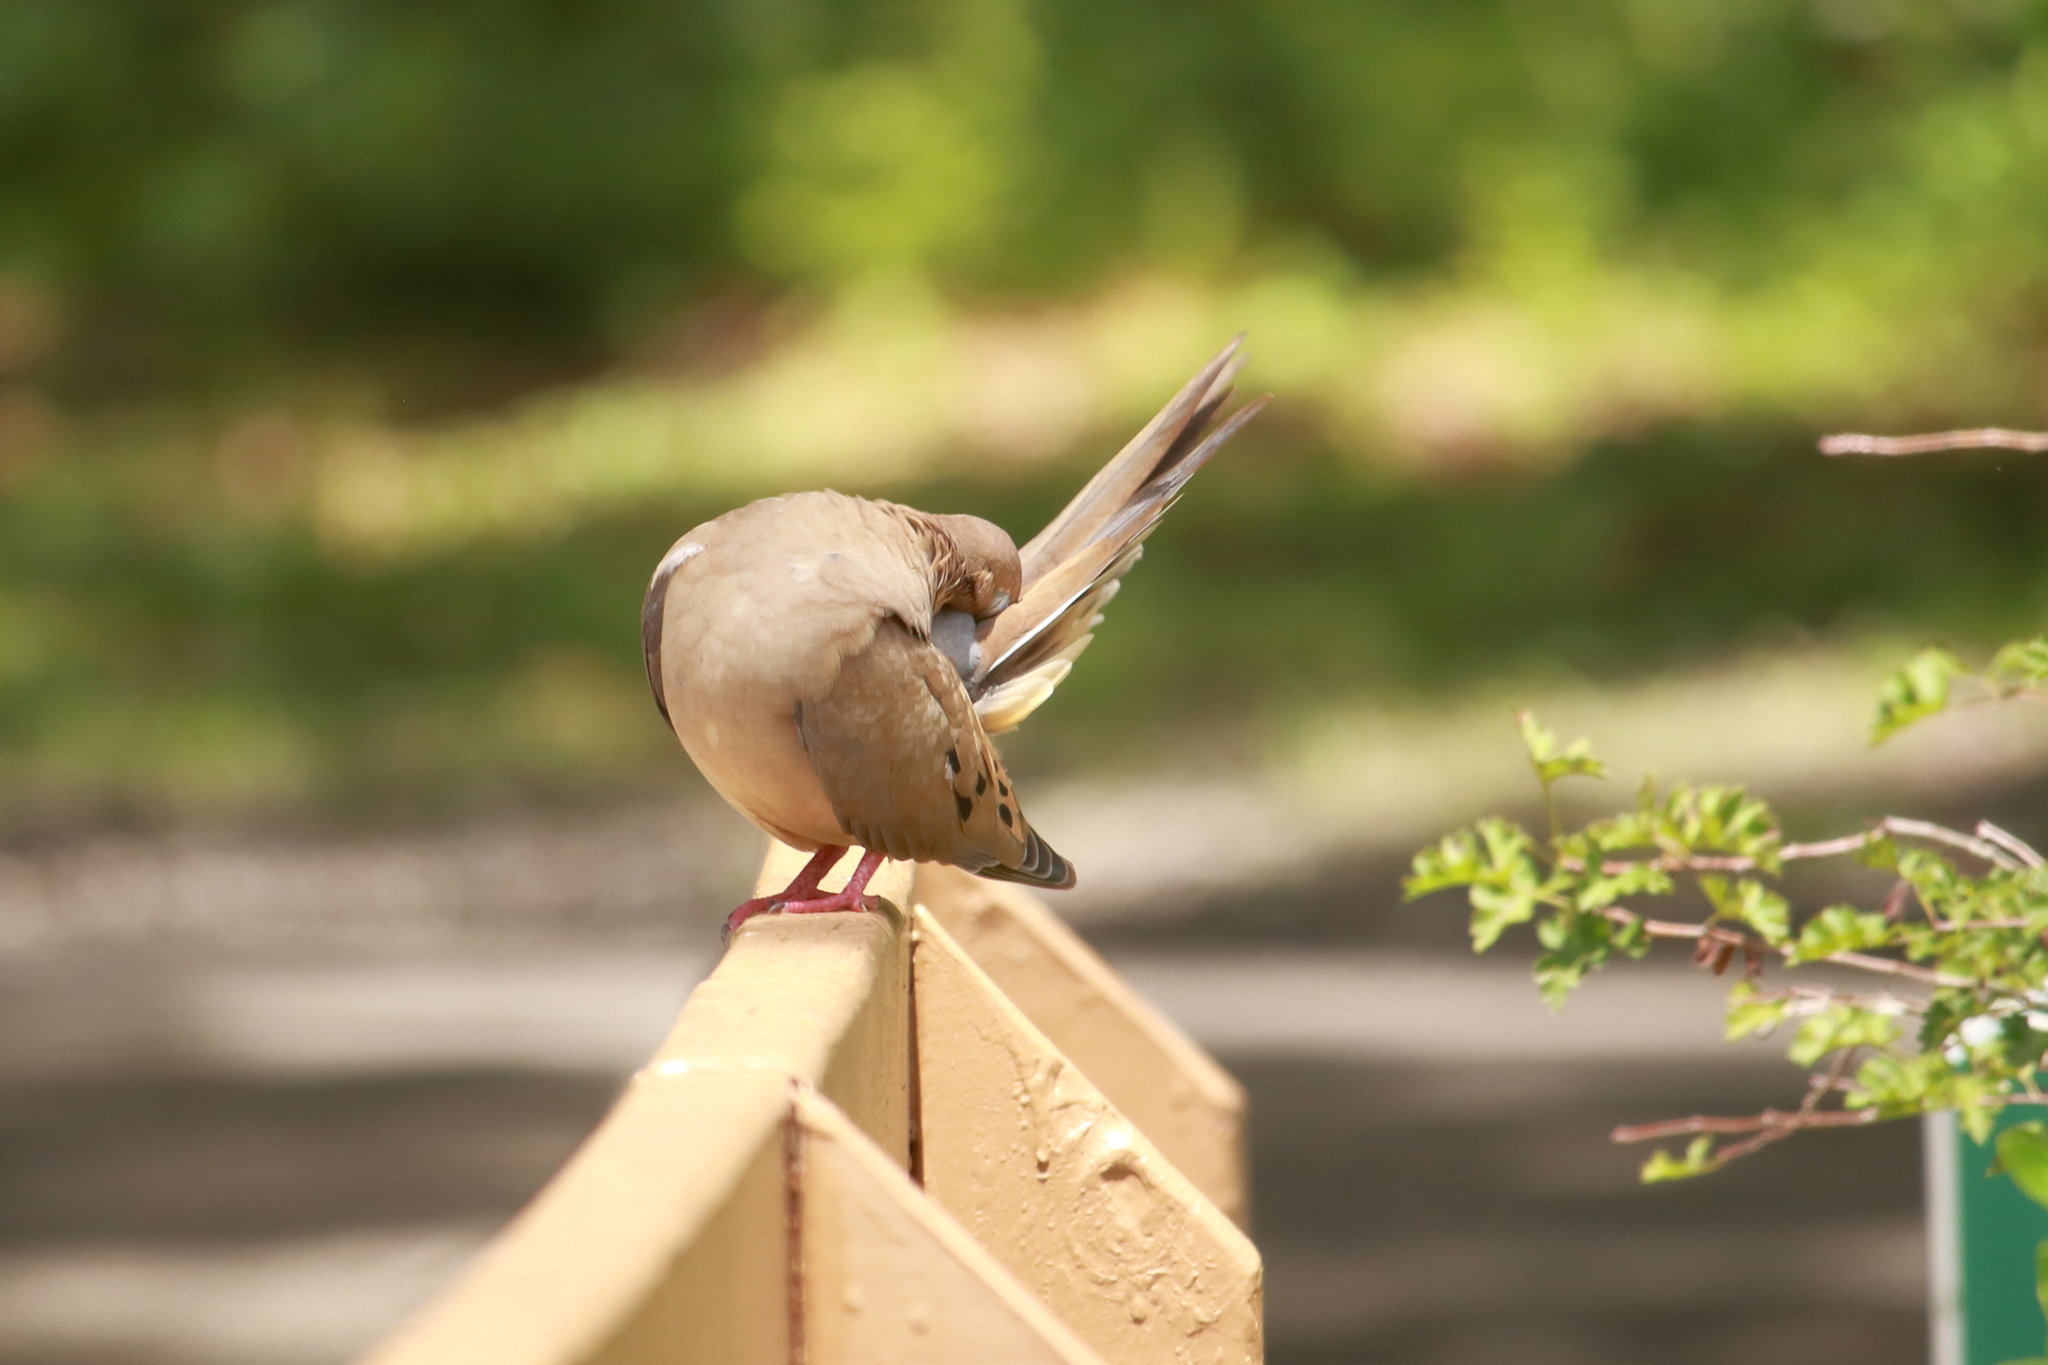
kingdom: Animalia
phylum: Chordata
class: Aves
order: Columbiformes
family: Columbidae
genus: Zenaida
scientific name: Zenaida macroura
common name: Mourning dove
